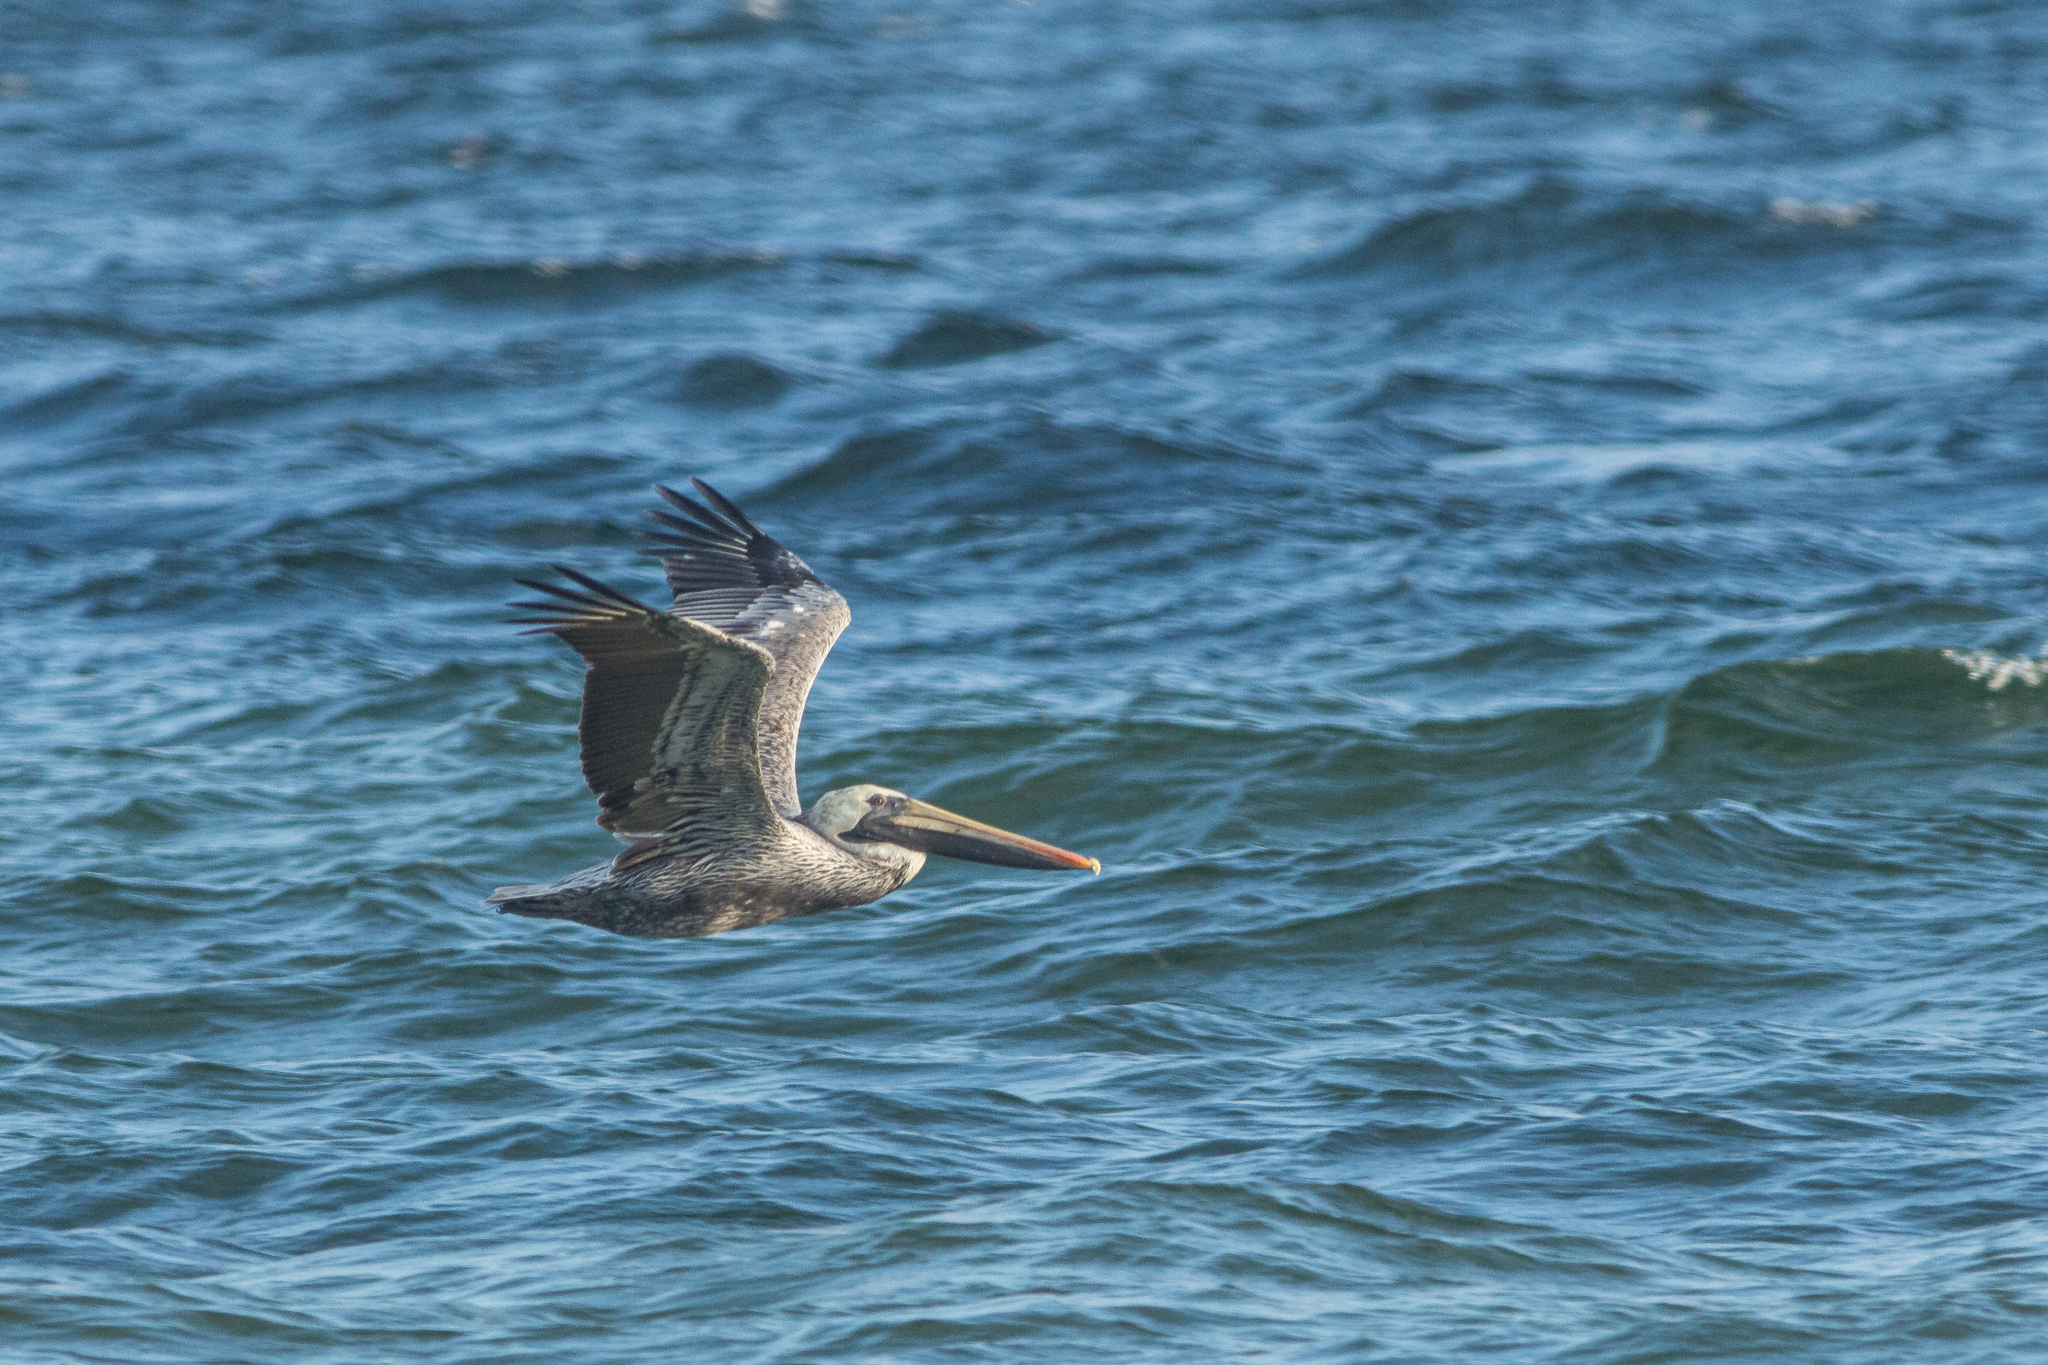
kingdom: Animalia
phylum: Chordata
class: Aves
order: Pelecaniformes
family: Pelecanidae
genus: Pelecanus
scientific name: Pelecanus occidentalis
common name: Brown pelican
